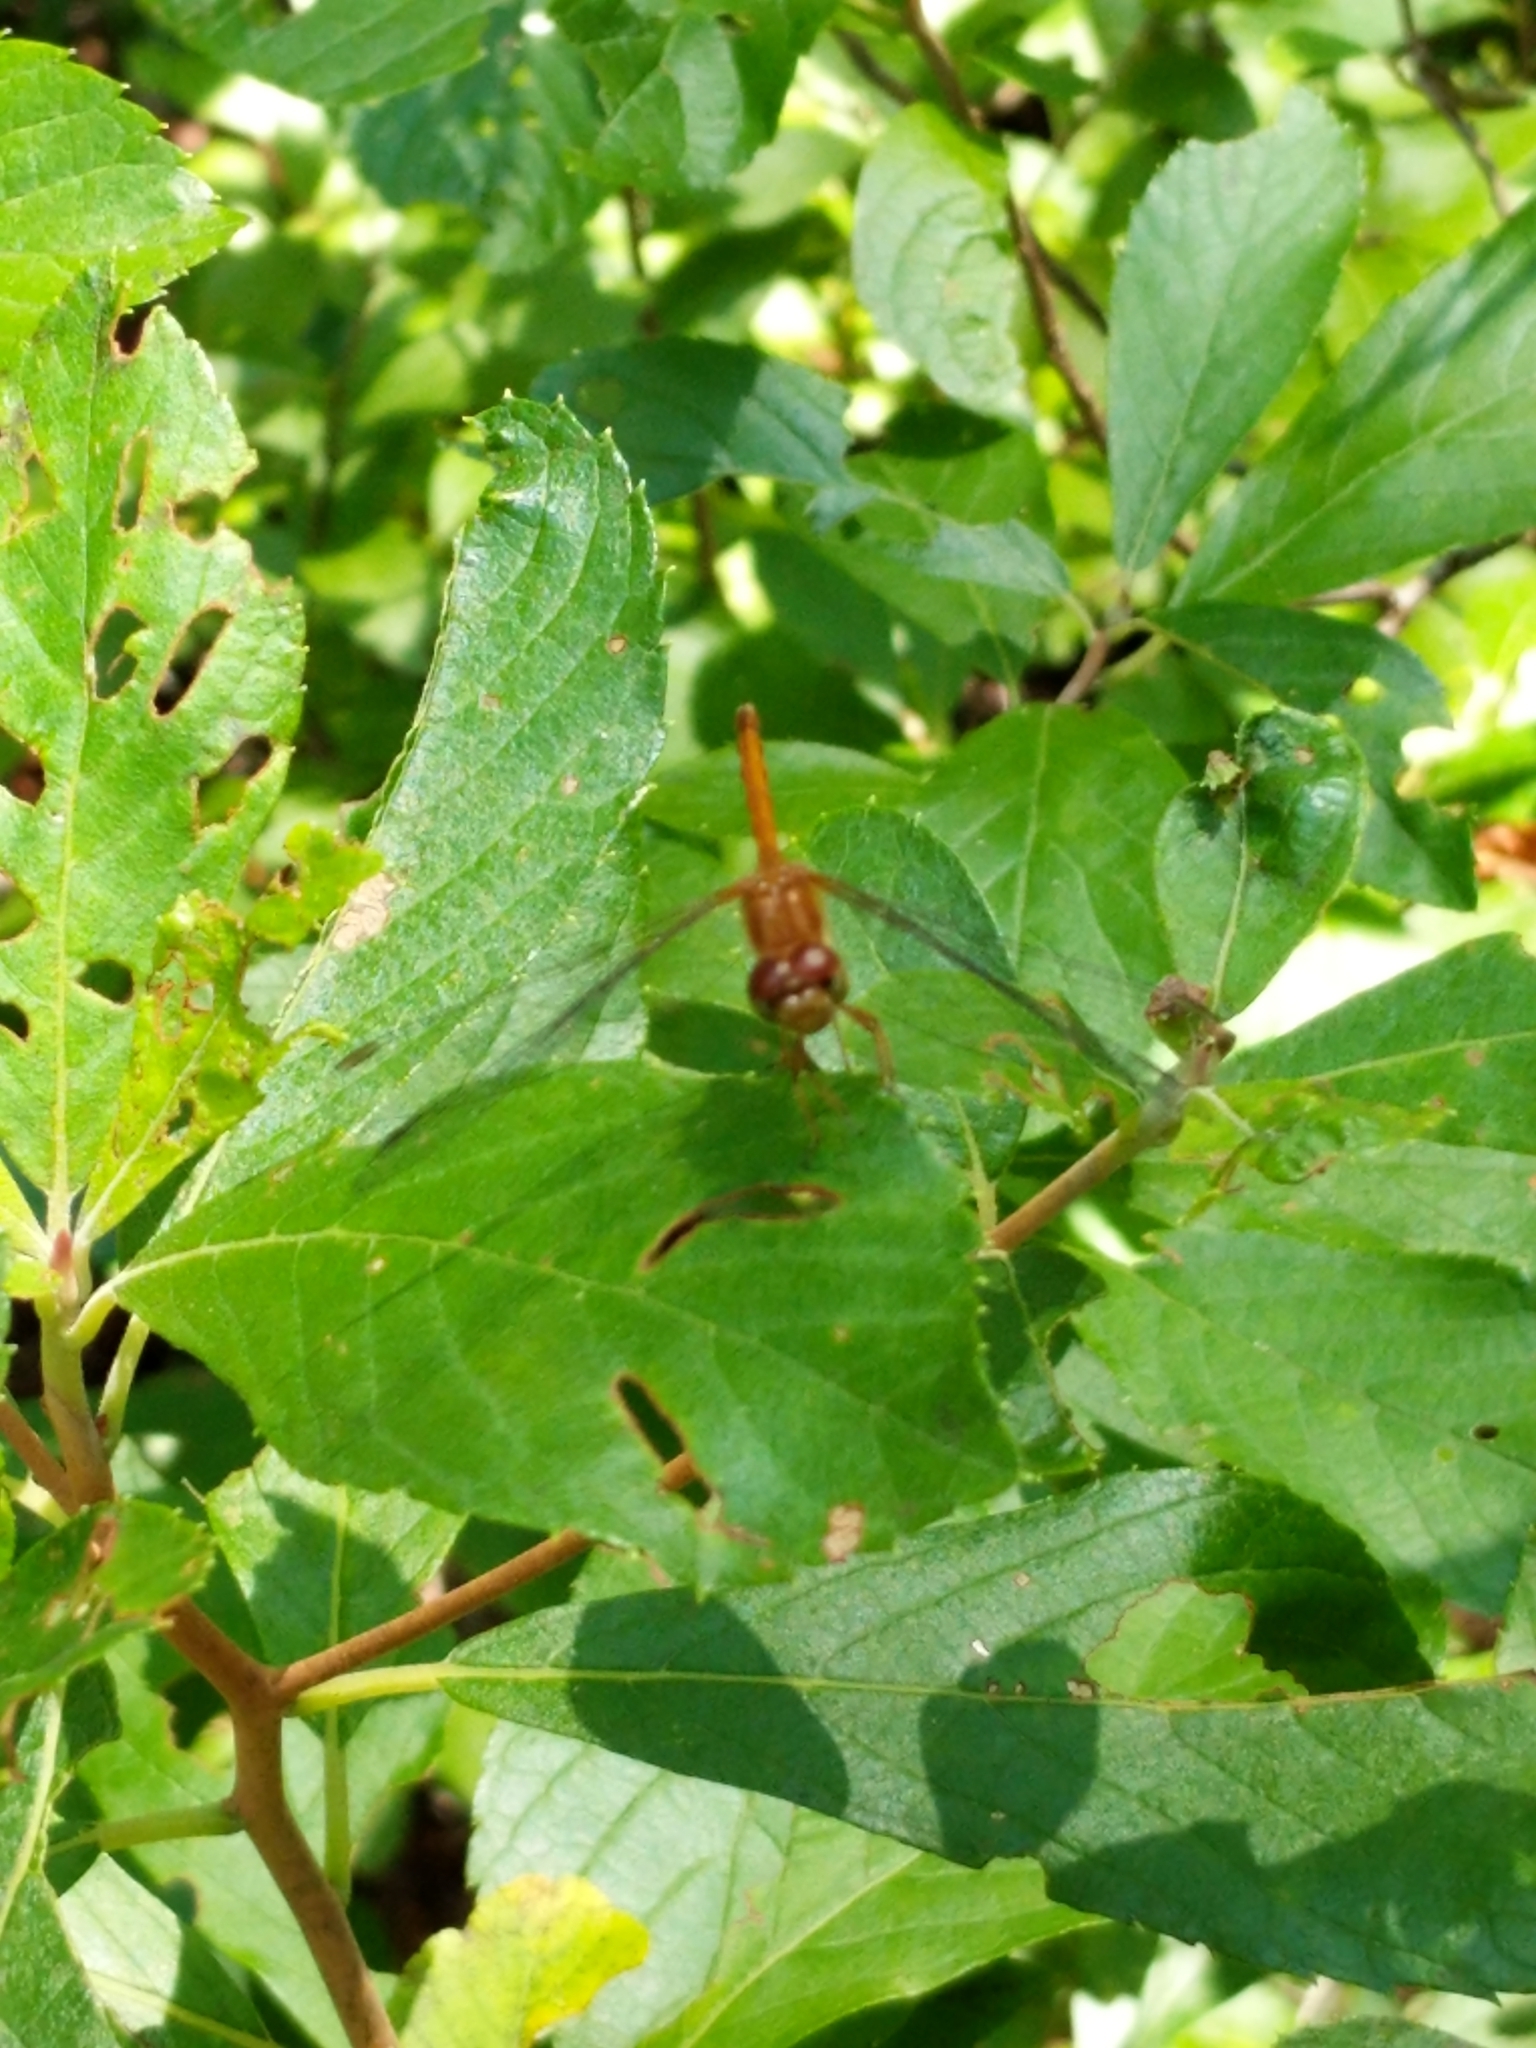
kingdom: Animalia
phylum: Arthropoda
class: Insecta
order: Odonata
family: Libellulidae
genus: Sympetrum
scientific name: Sympetrum vicinum
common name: Autumn meadowhawk
